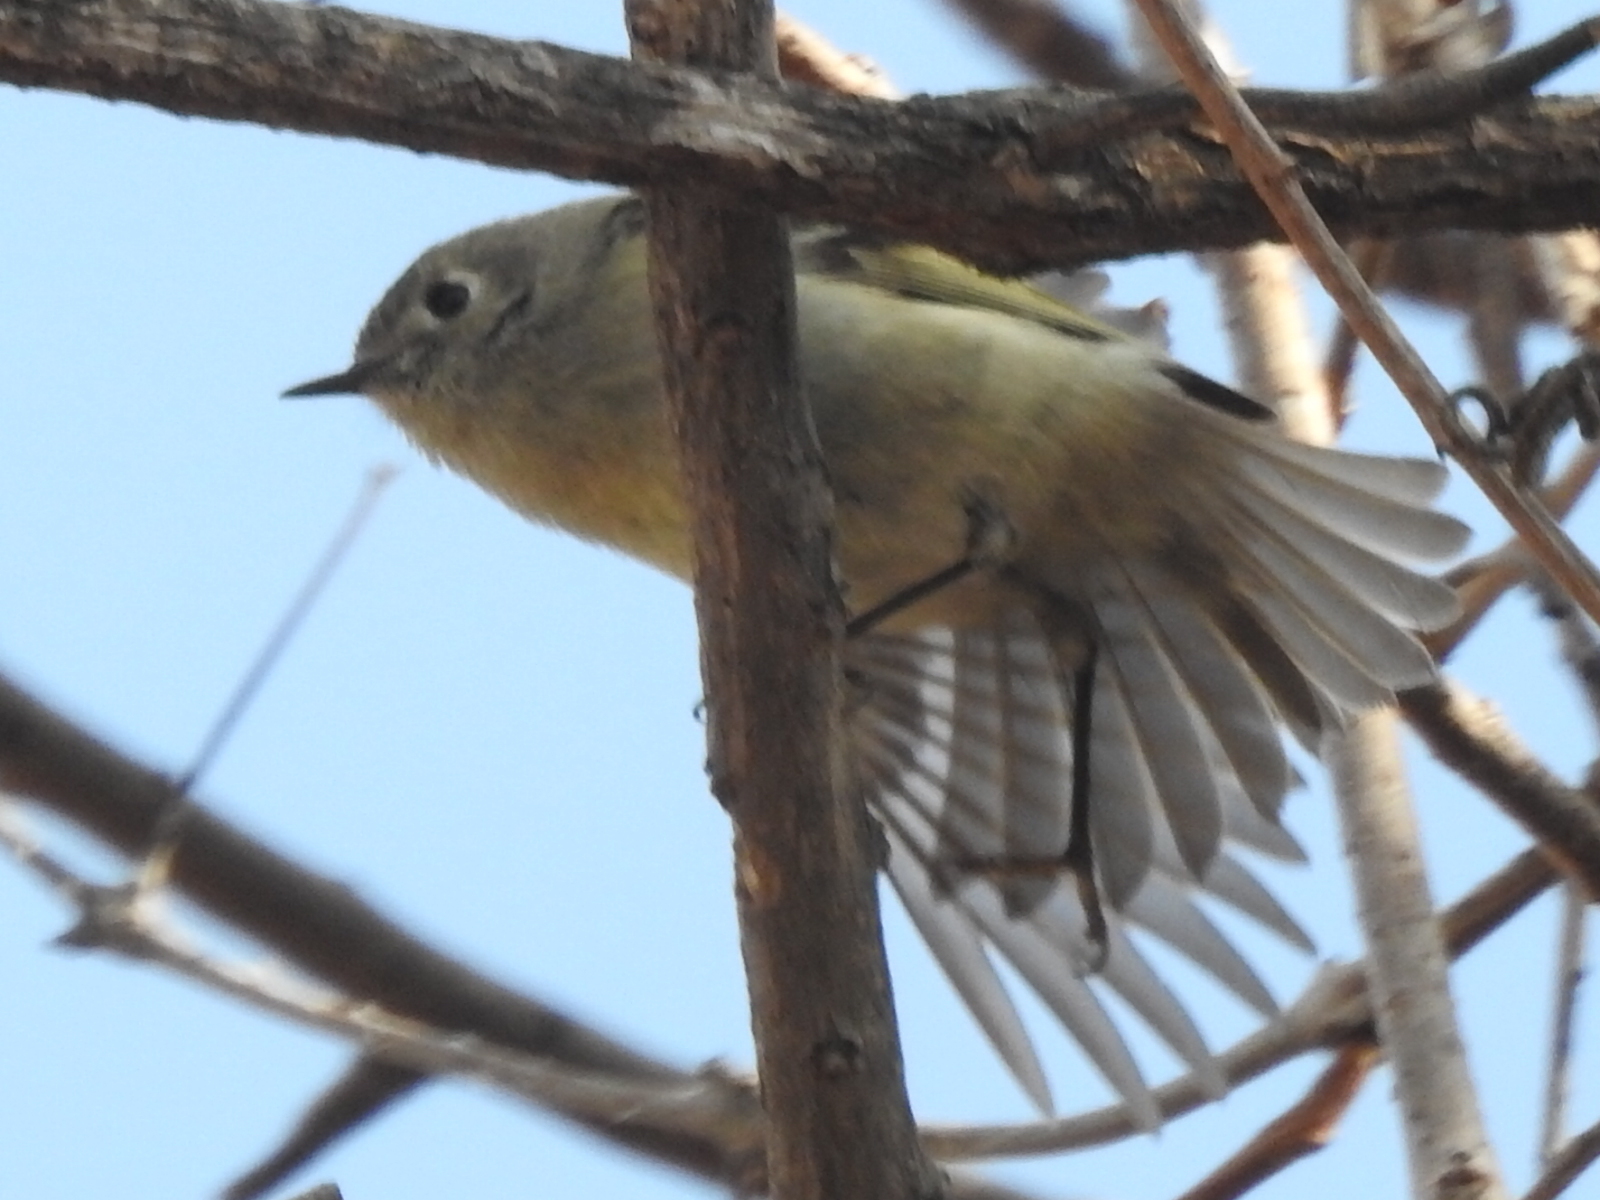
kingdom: Animalia
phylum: Chordata
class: Aves
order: Passeriformes
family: Regulidae
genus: Regulus
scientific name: Regulus calendula
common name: Ruby-crowned kinglet
